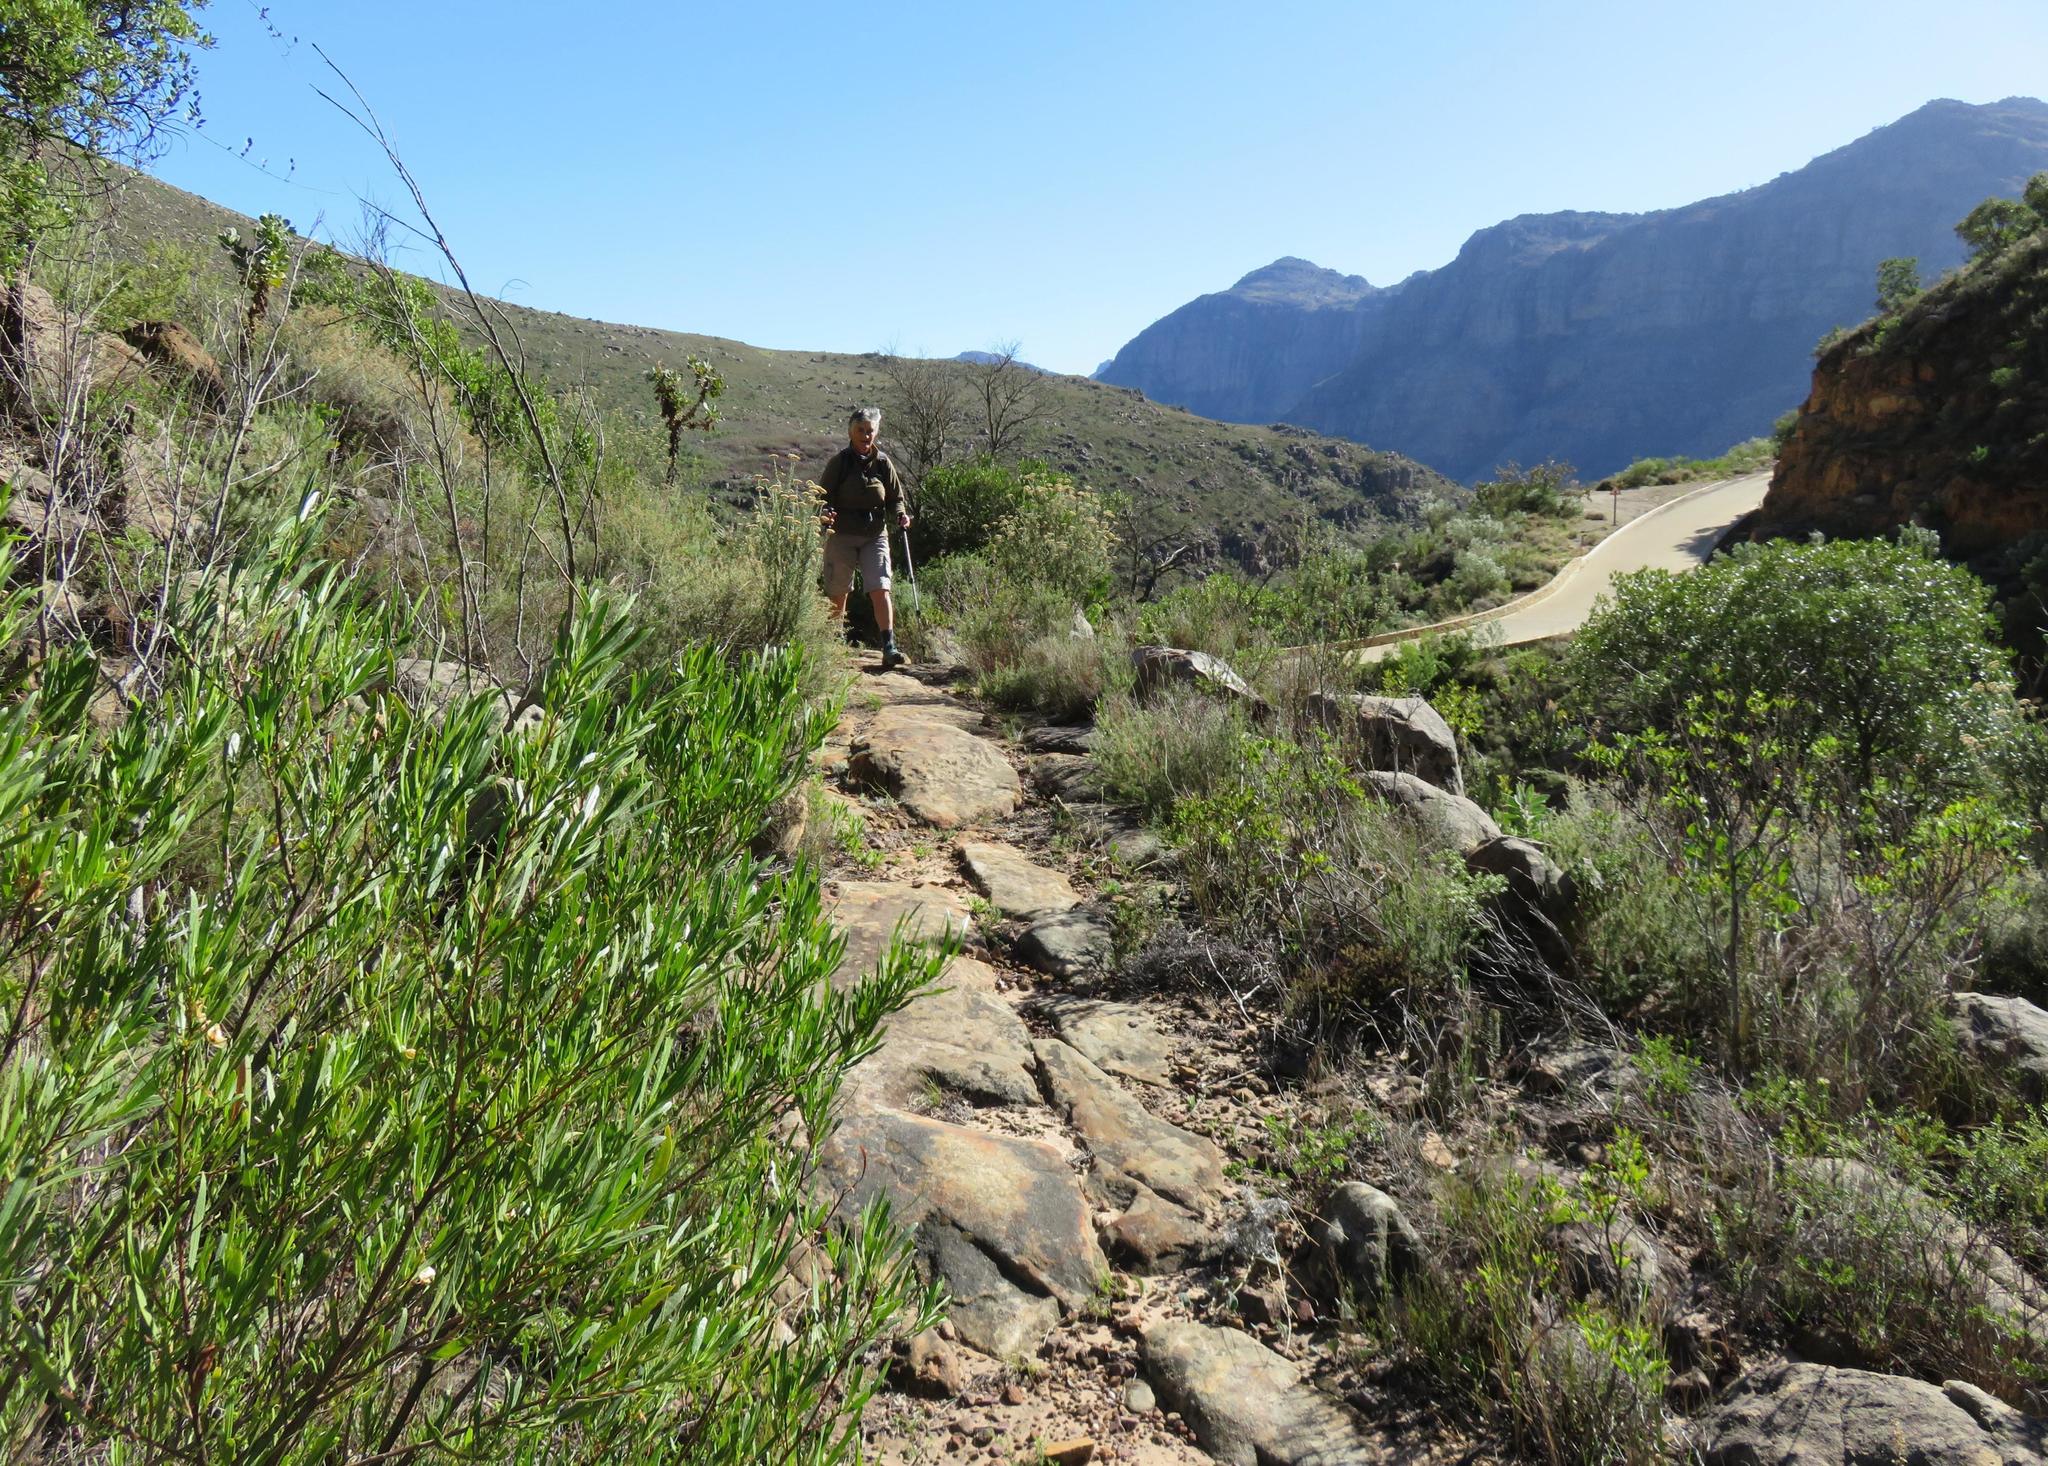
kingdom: Plantae
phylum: Tracheophyta
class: Magnoliopsida
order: Sapindales
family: Sapindaceae
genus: Dodonaea
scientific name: Dodonaea viscosa
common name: Hopbush
